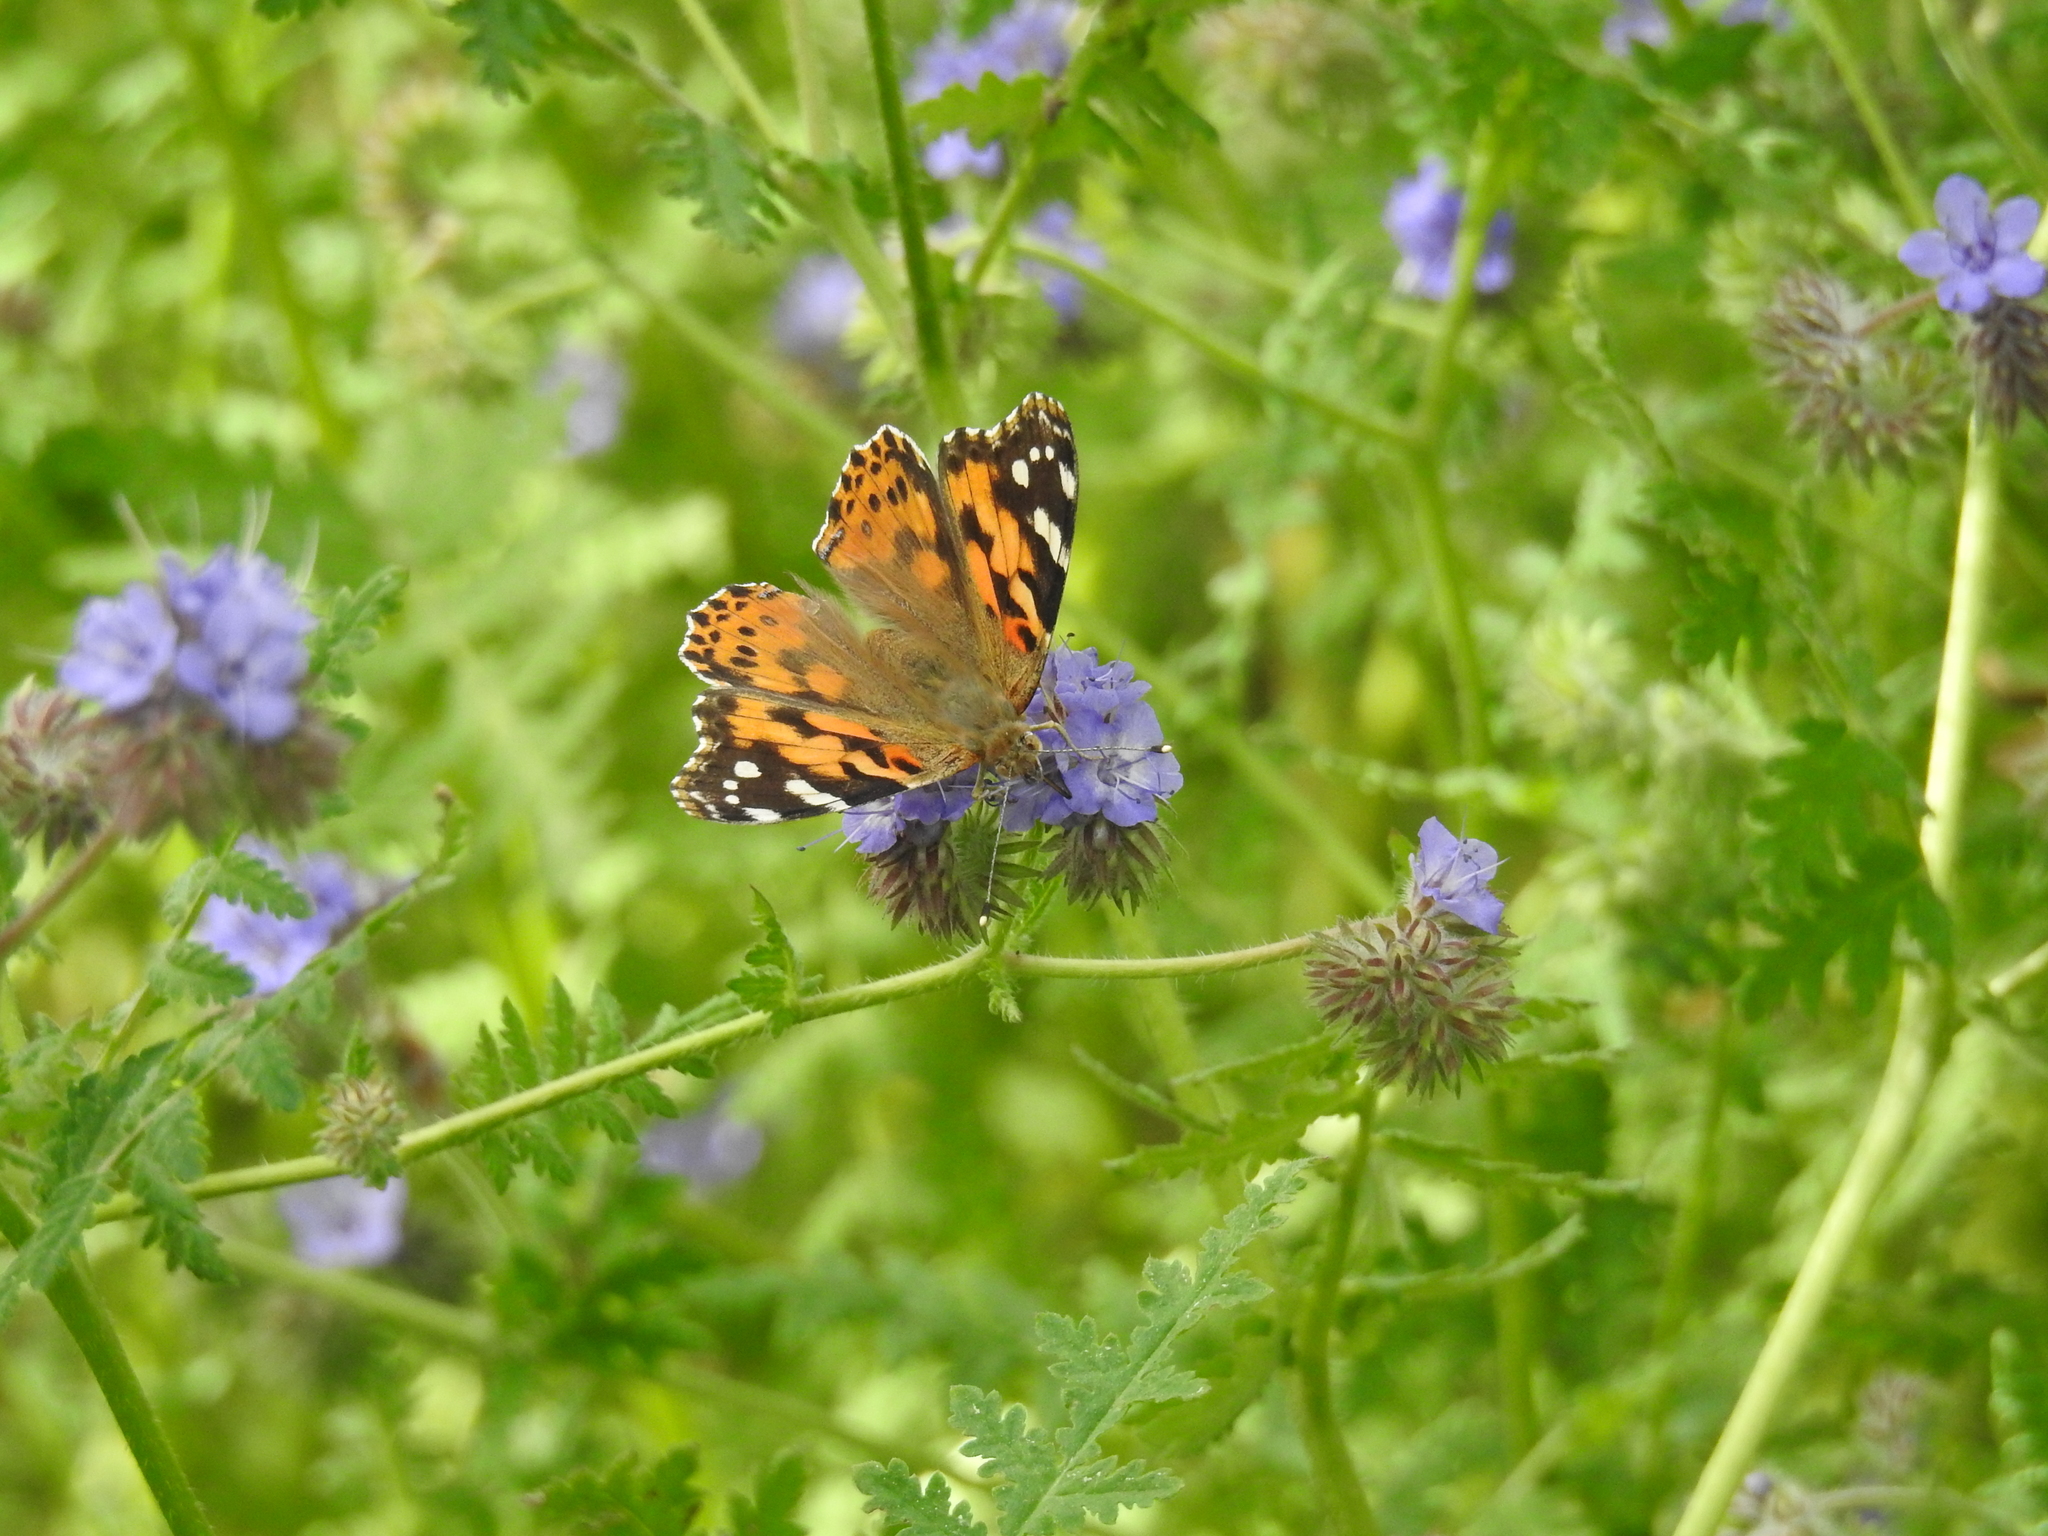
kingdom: Animalia
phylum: Arthropoda
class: Insecta
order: Lepidoptera
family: Nymphalidae
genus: Vanessa
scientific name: Vanessa cardui
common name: Painted lady
